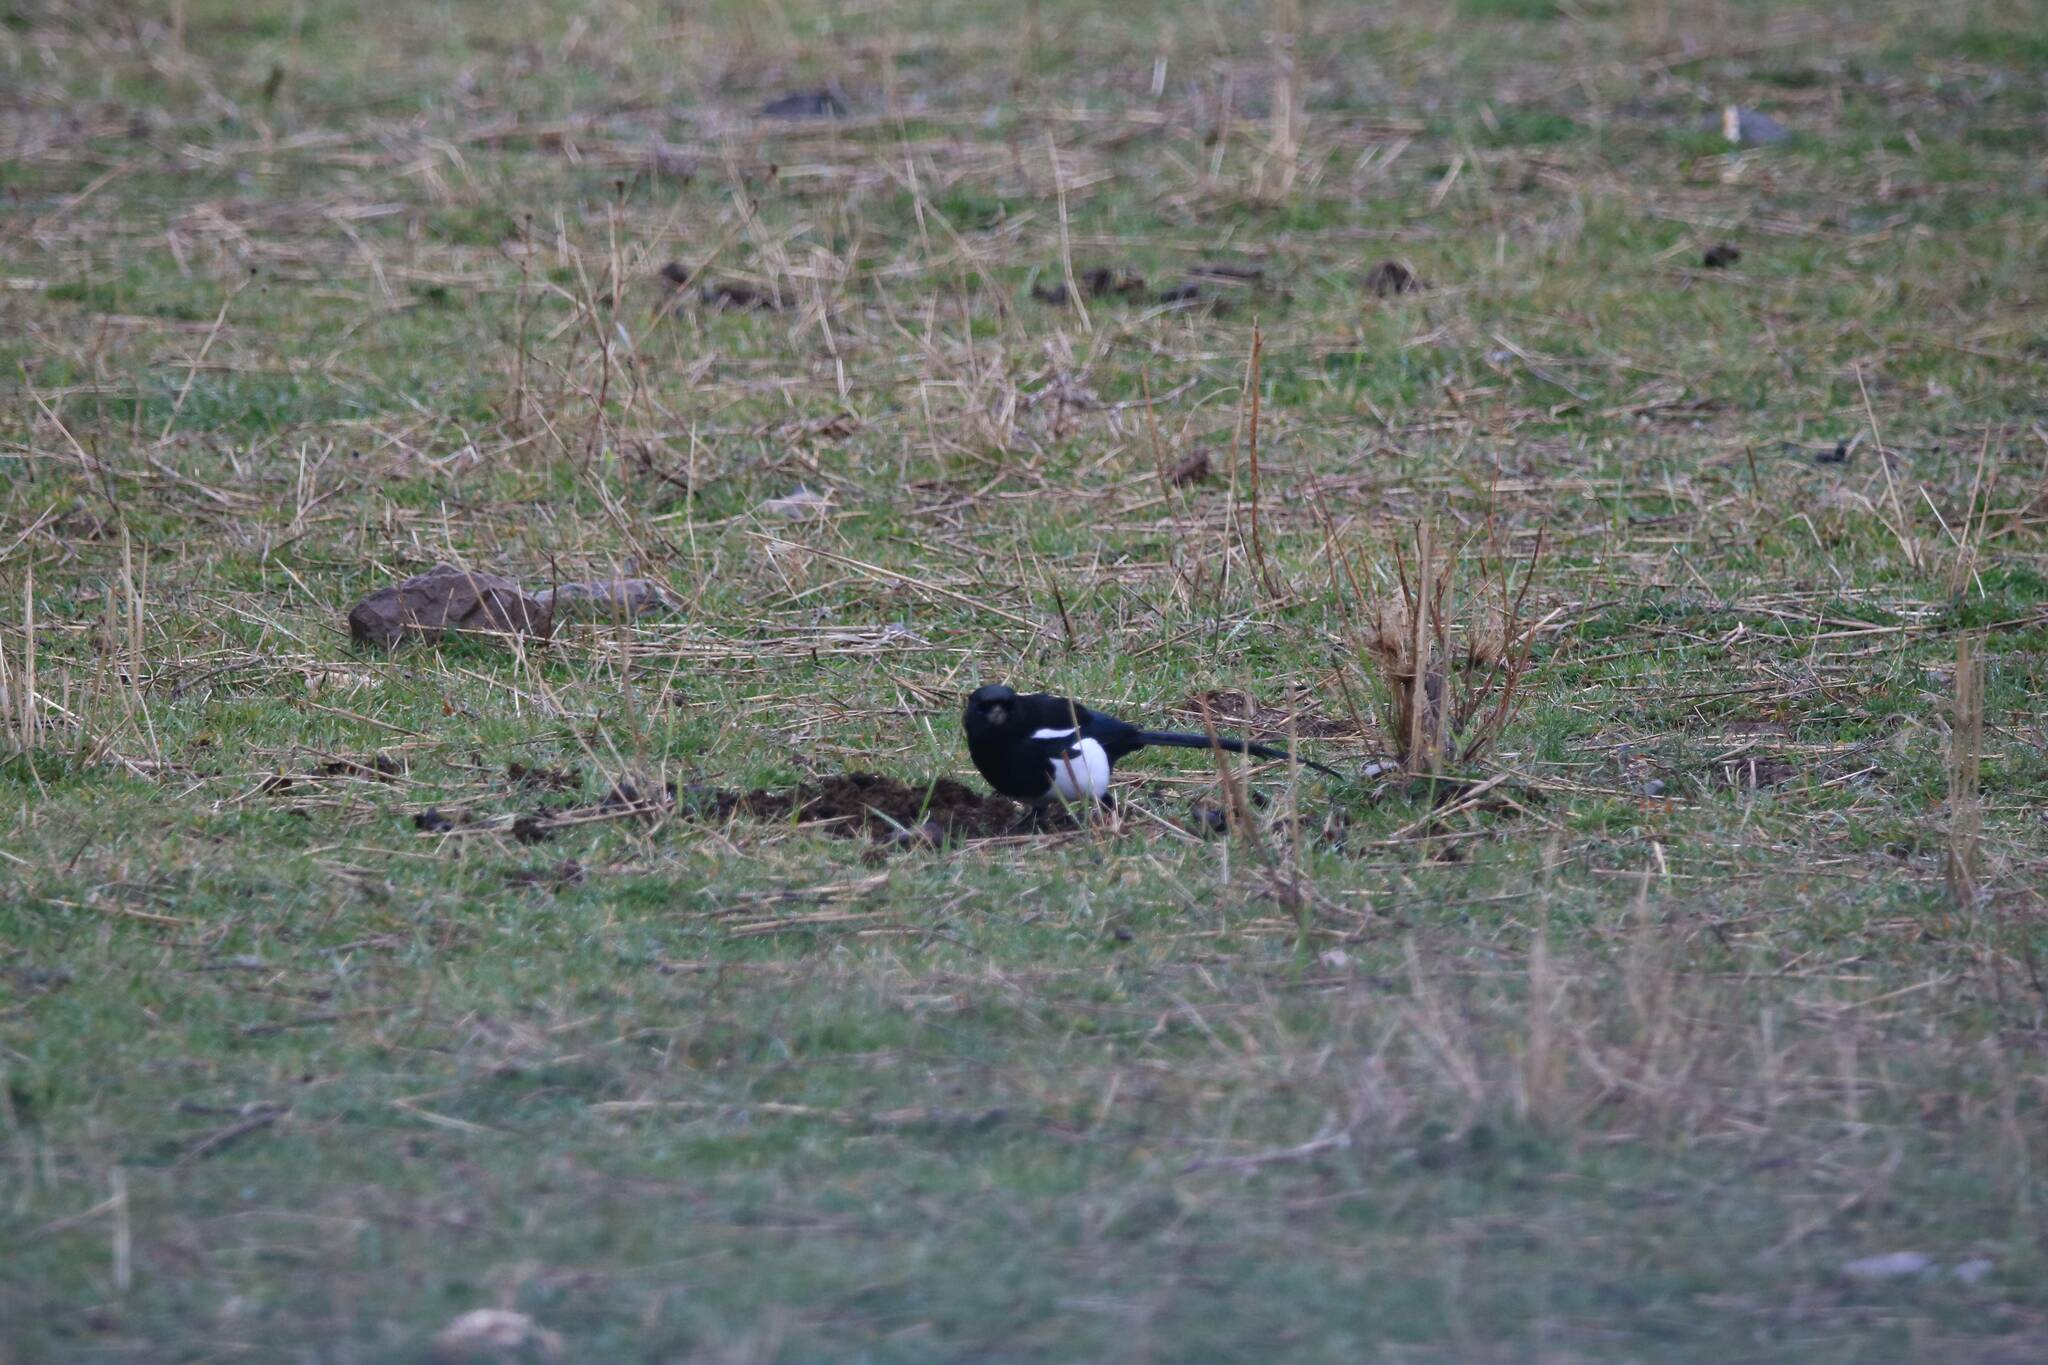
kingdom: Animalia
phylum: Chordata
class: Aves
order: Passeriformes
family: Corvidae
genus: Pica
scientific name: Pica mauritanica
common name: Maghreb magpie
